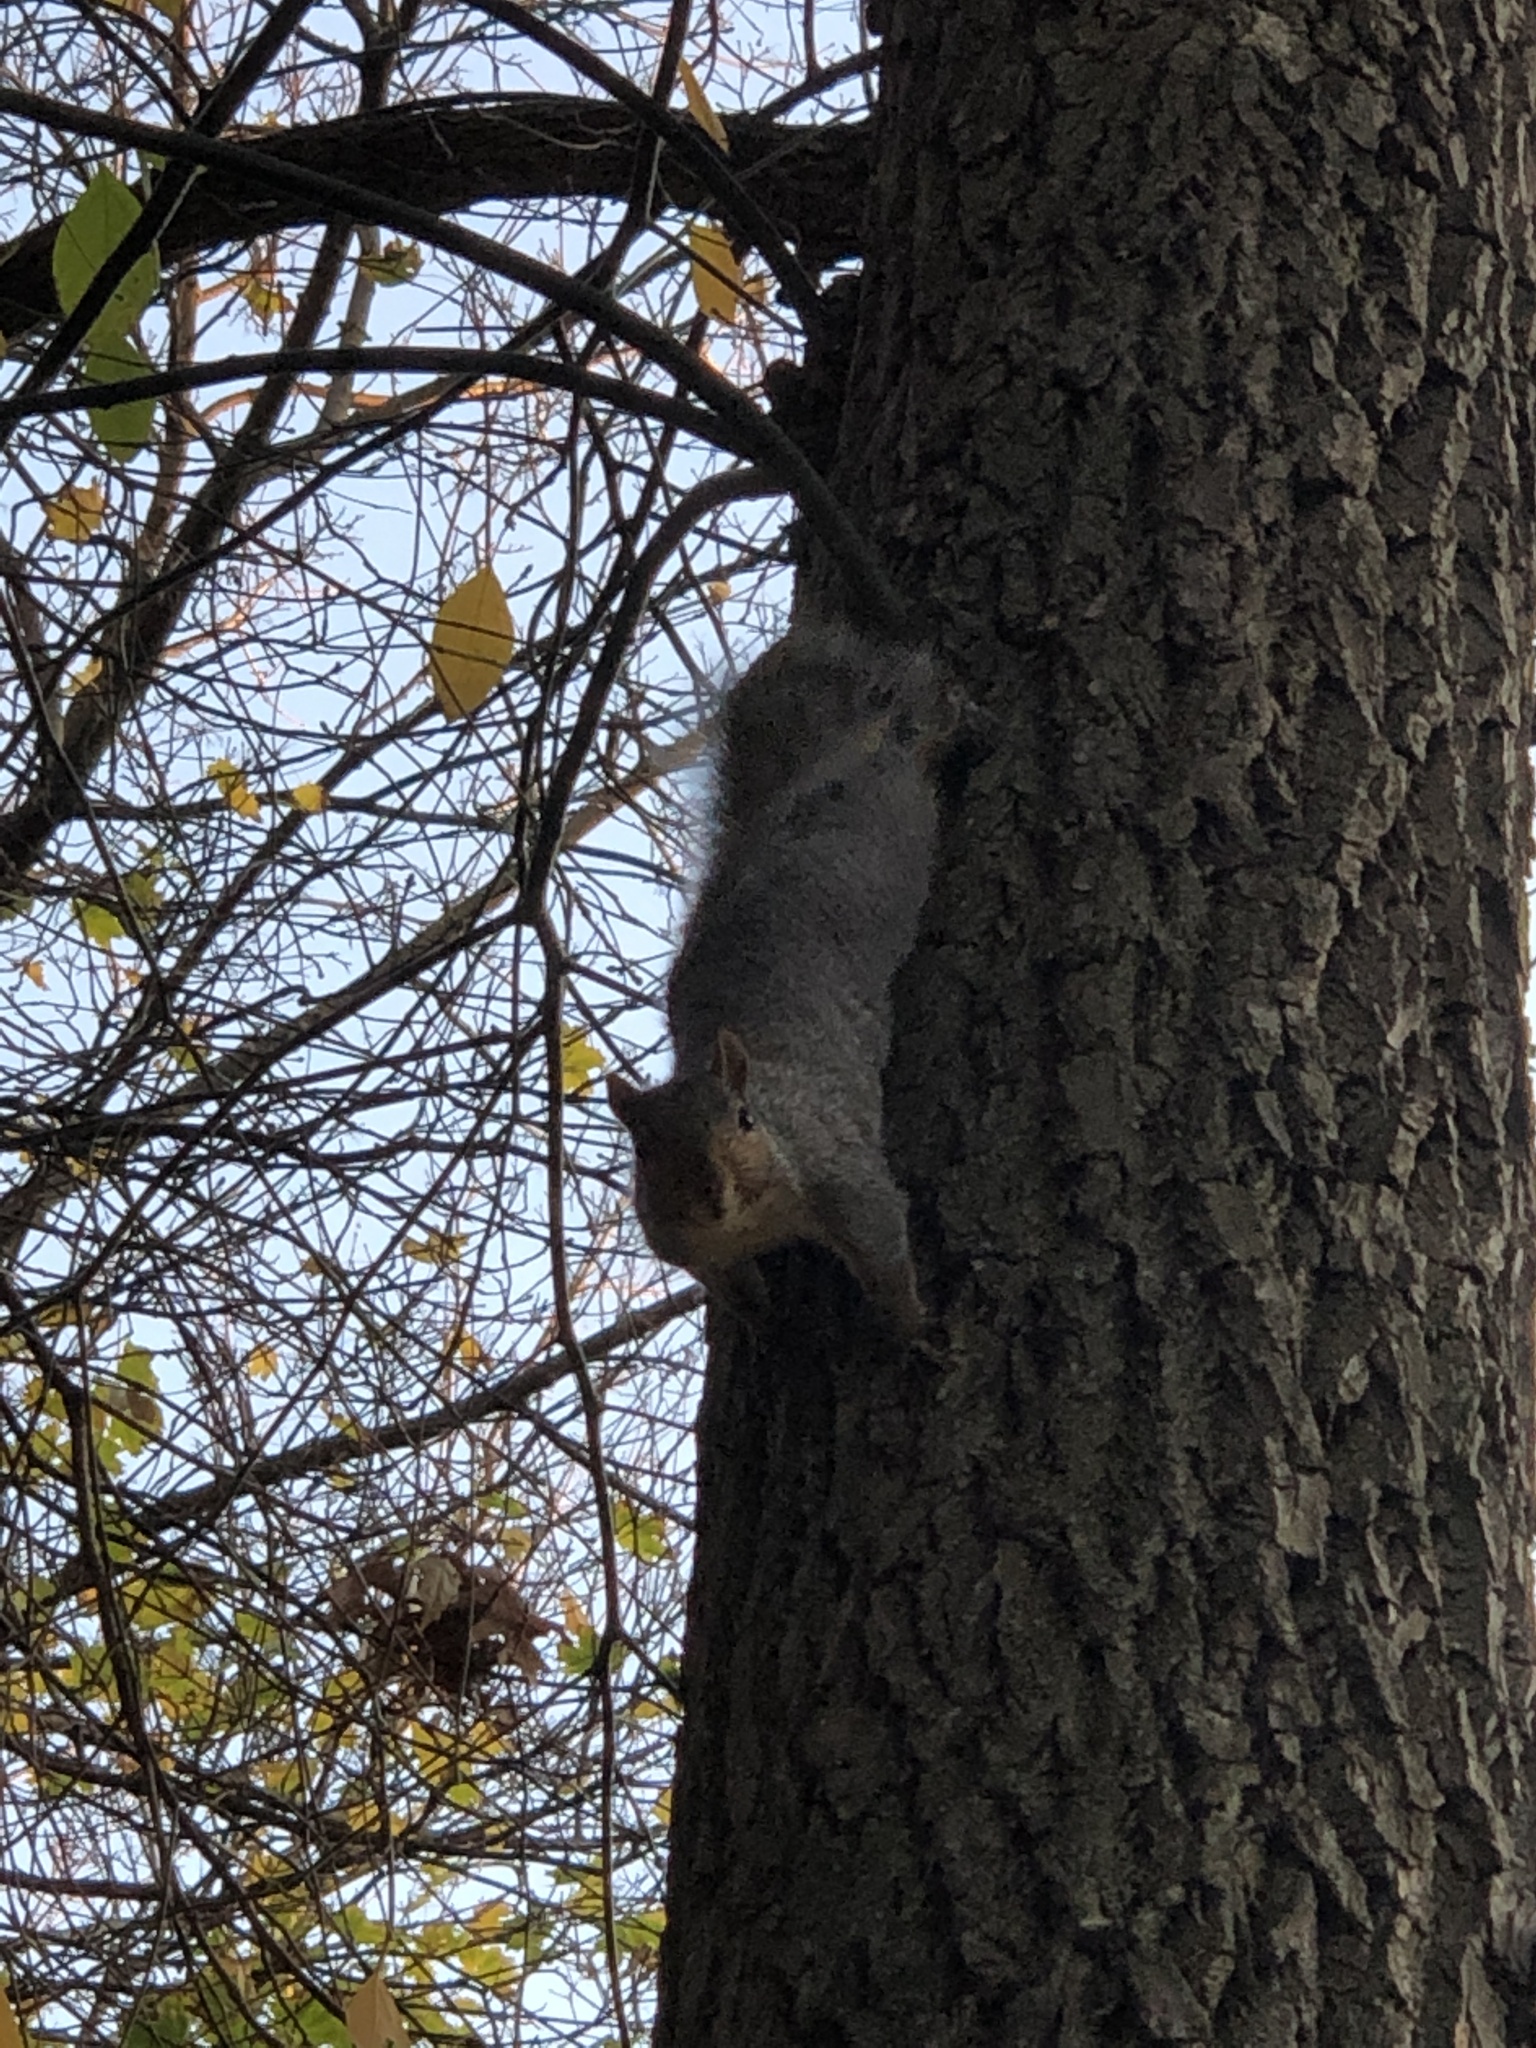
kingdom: Animalia
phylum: Chordata
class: Mammalia
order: Rodentia
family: Sciuridae
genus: Sciurus
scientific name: Sciurus carolinensis
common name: Eastern gray squirrel
